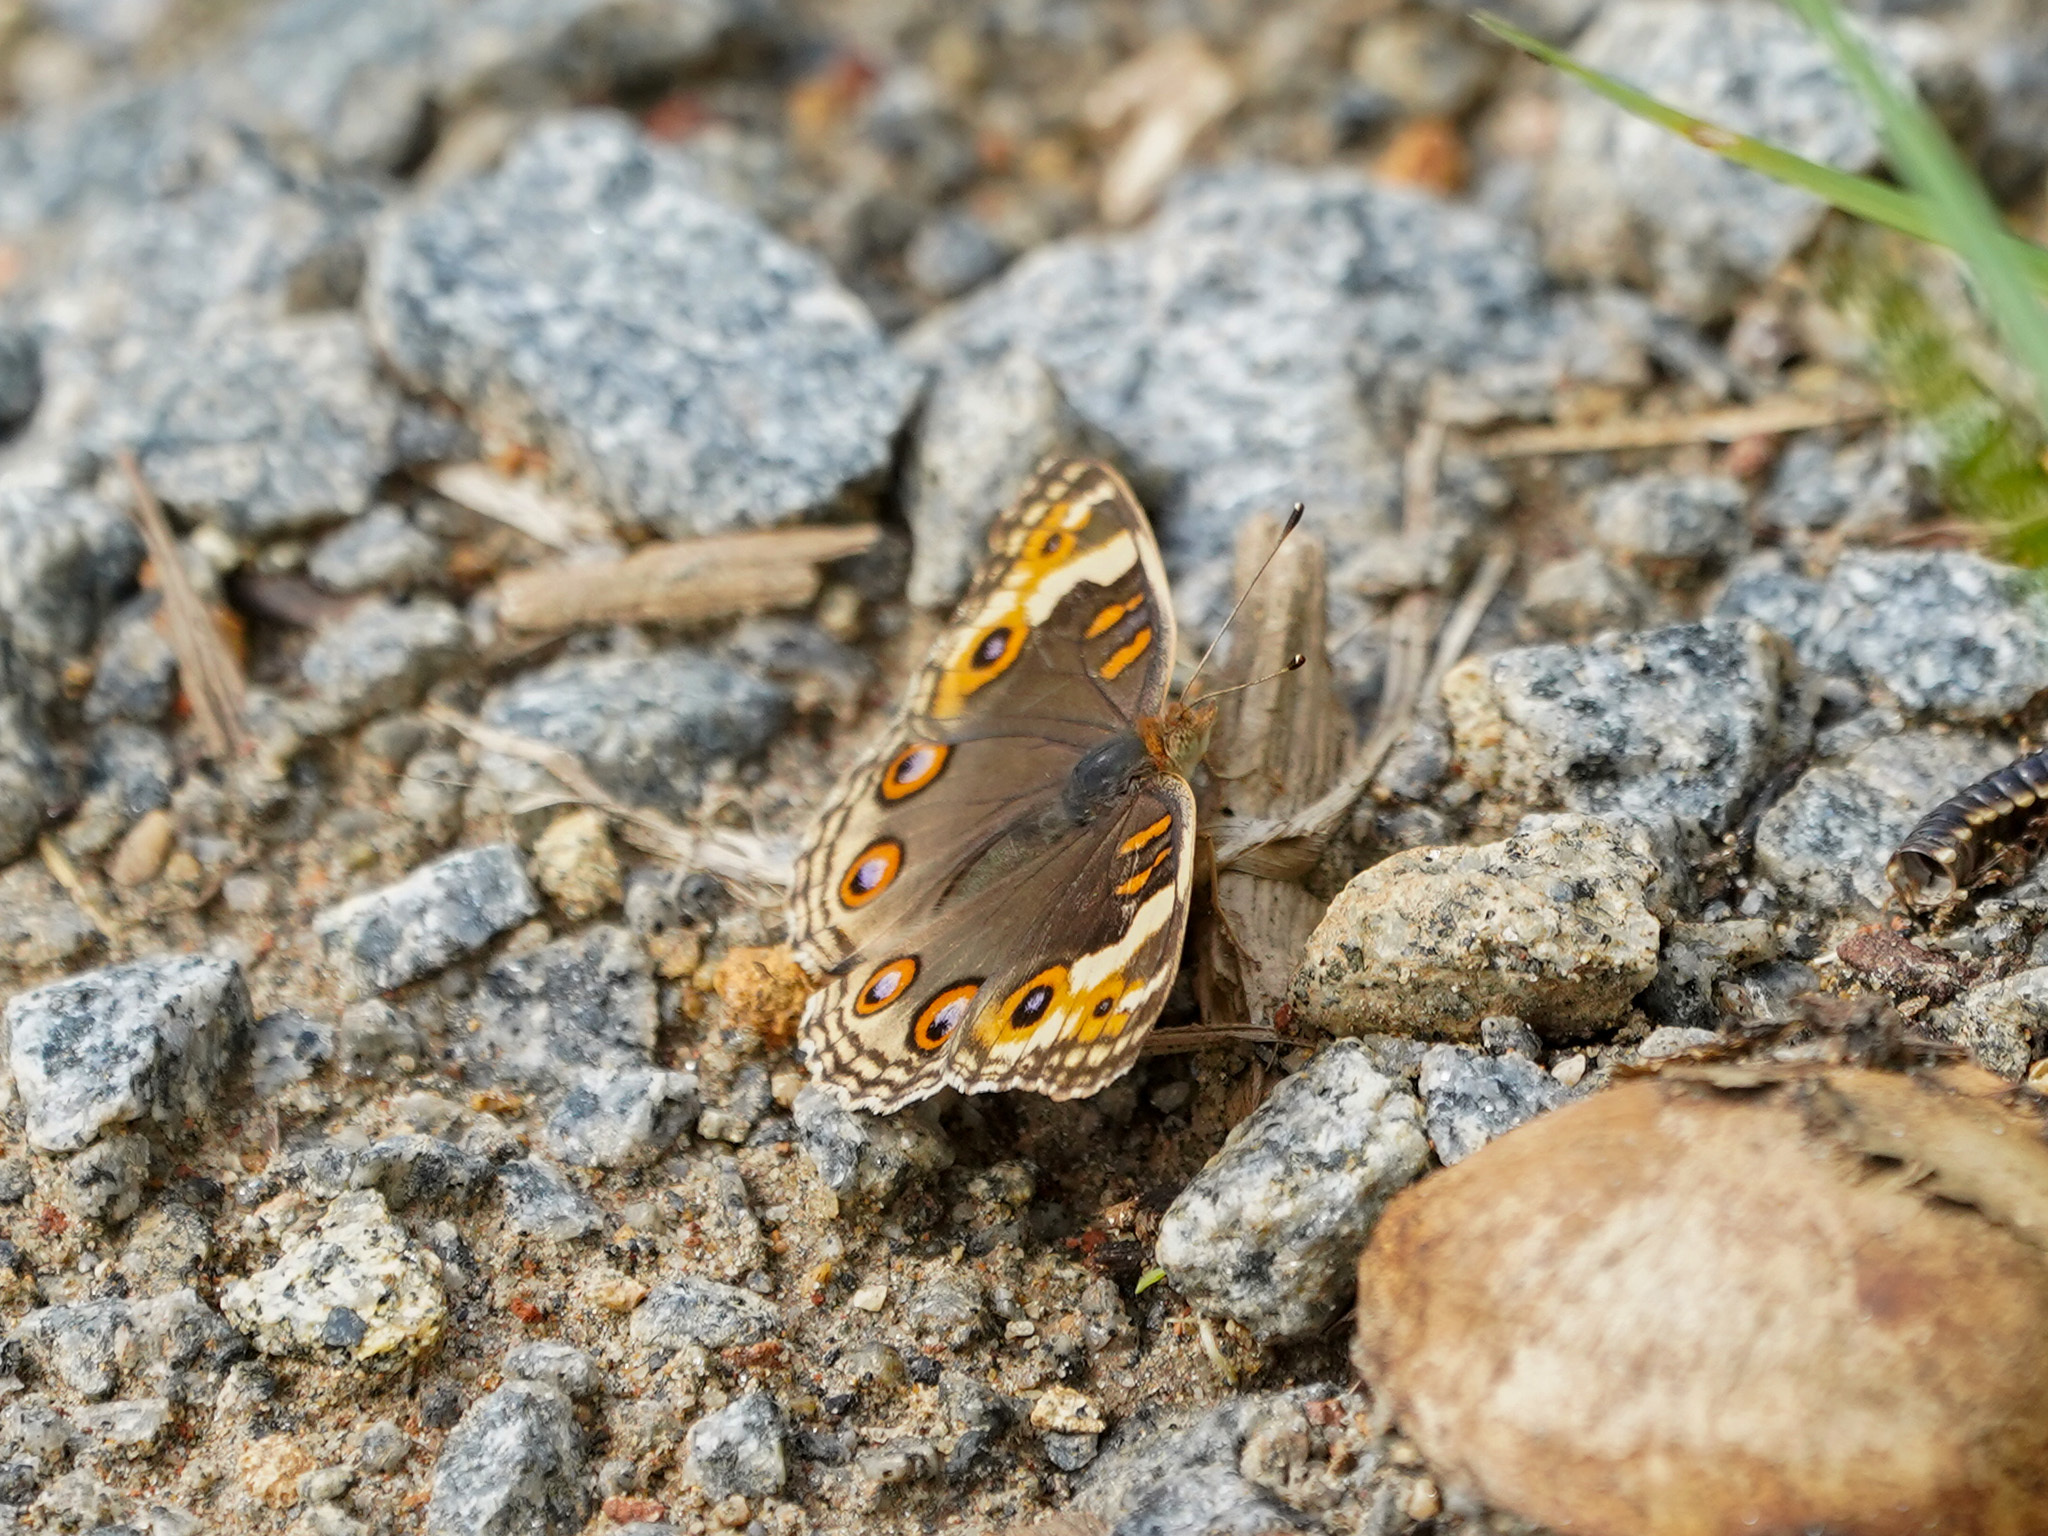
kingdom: Animalia
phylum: Arthropoda
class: Insecta
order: Lepidoptera
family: Nymphalidae
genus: Junonia
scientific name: Junonia orithya
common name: Blue pansy
